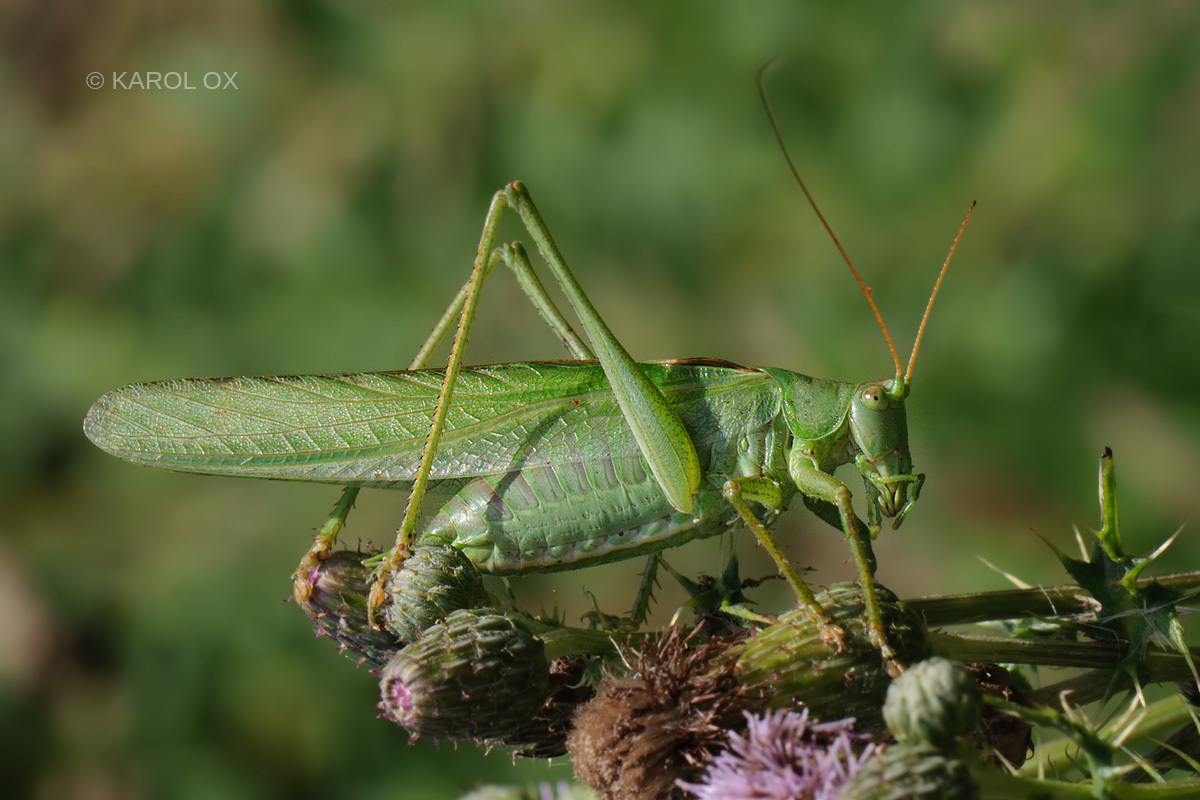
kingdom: Animalia
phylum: Arthropoda
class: Insecta
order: Orthoptera
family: Tettigoniidae
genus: Tettigonia
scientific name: Tettigonia viridissima
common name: Great green bush-cricket
